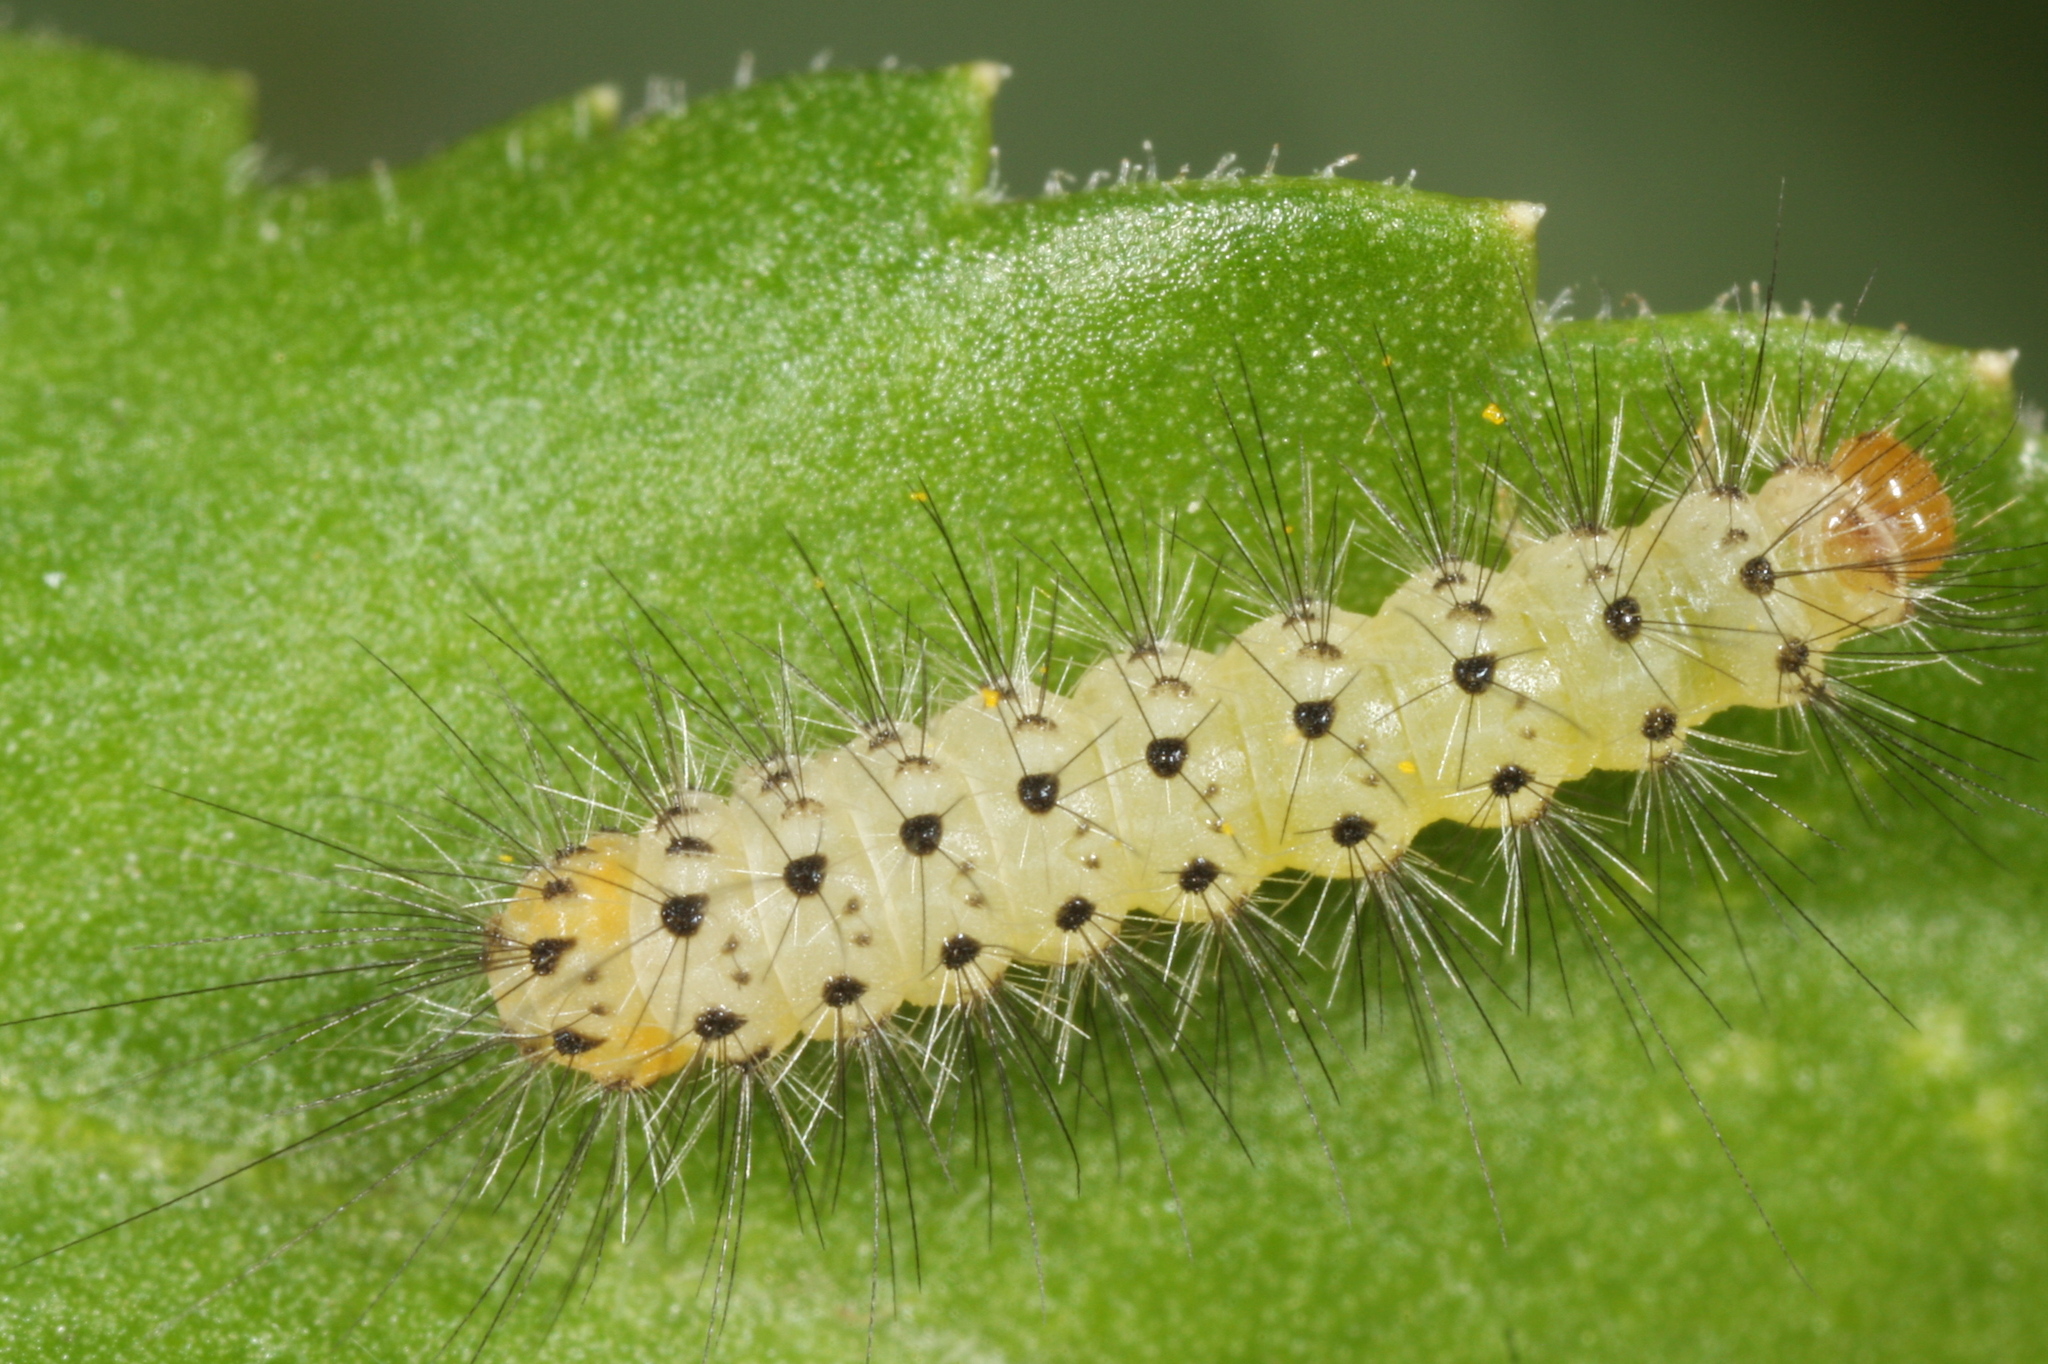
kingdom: Animalia
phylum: Arthropoda
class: Insecta
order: Lepidoptera
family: Erebidae
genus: Diaphora
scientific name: Diaphora mendica
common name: Muslin moth
